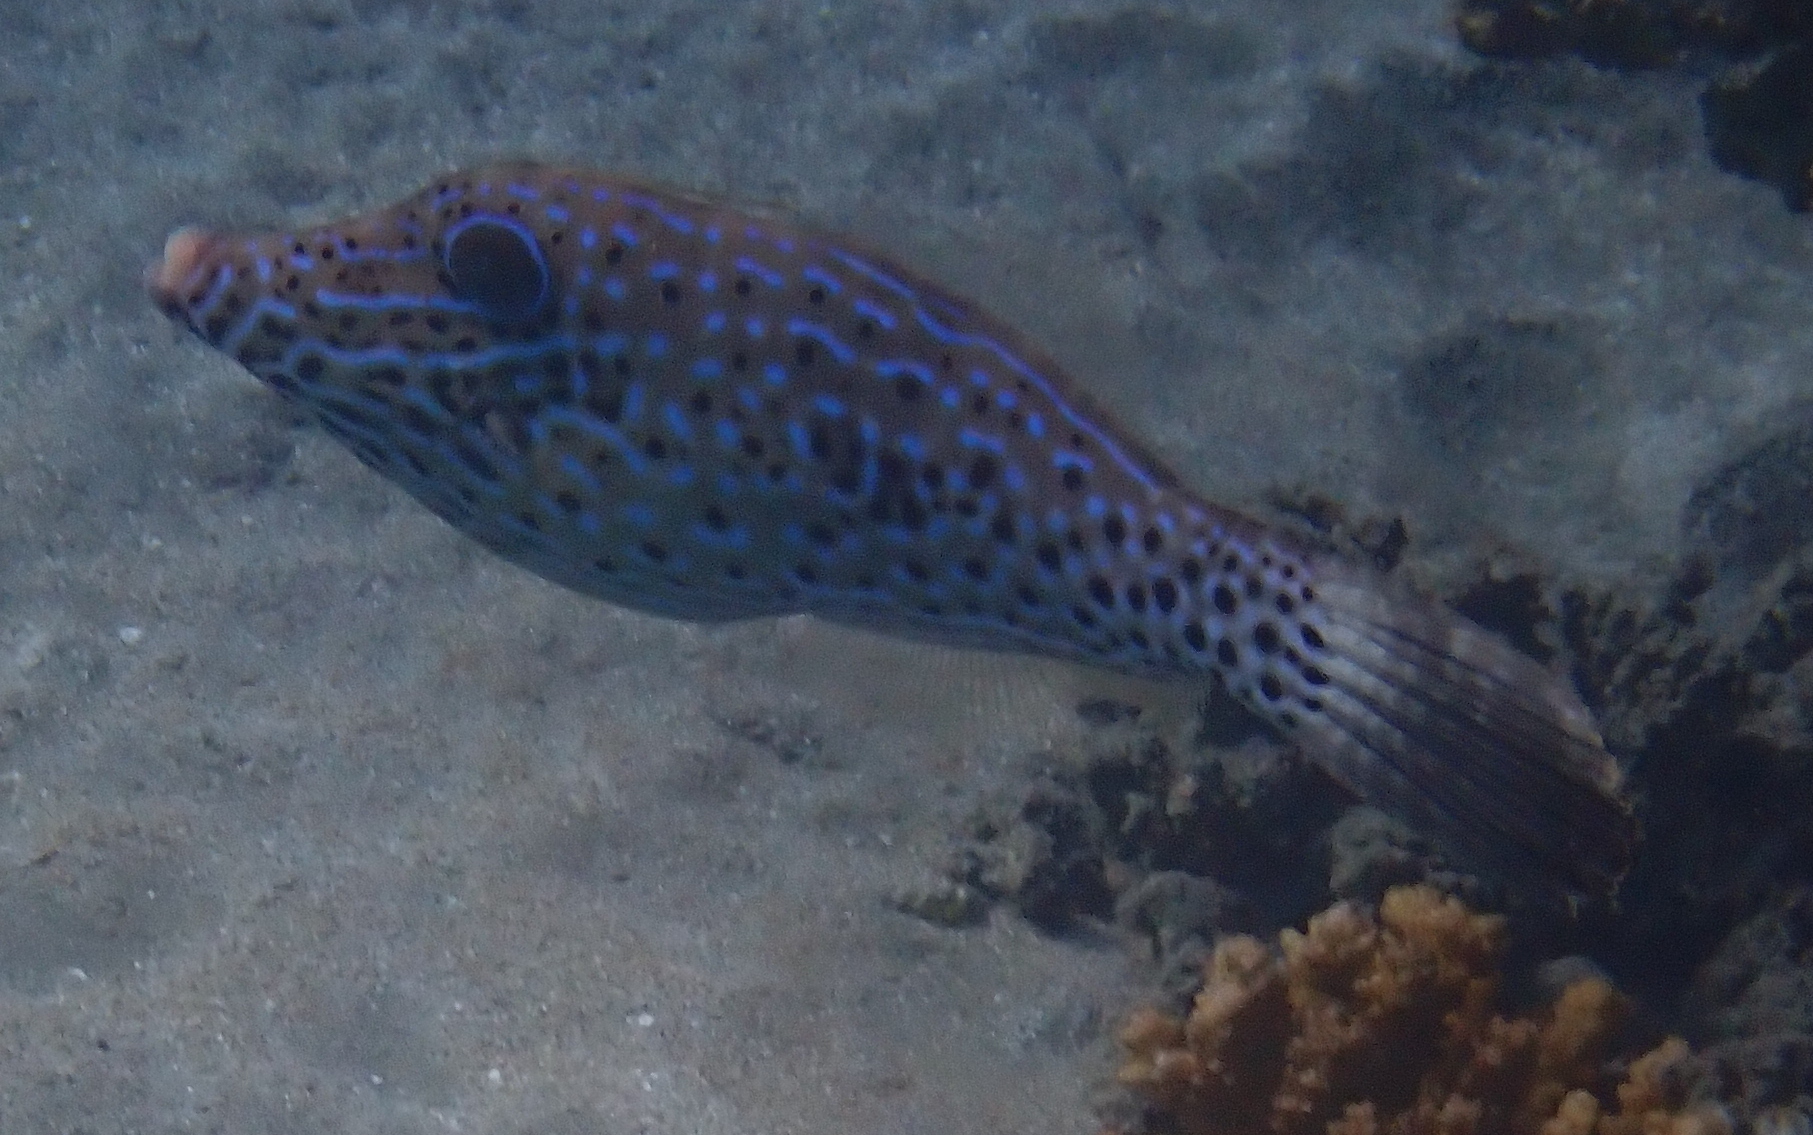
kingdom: Animalia
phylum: Chordata
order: Tetraodontiformes
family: Monacanthidae
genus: Aluterus
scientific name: Aluterus scriptus
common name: Scribbled leatherjacket filefish
